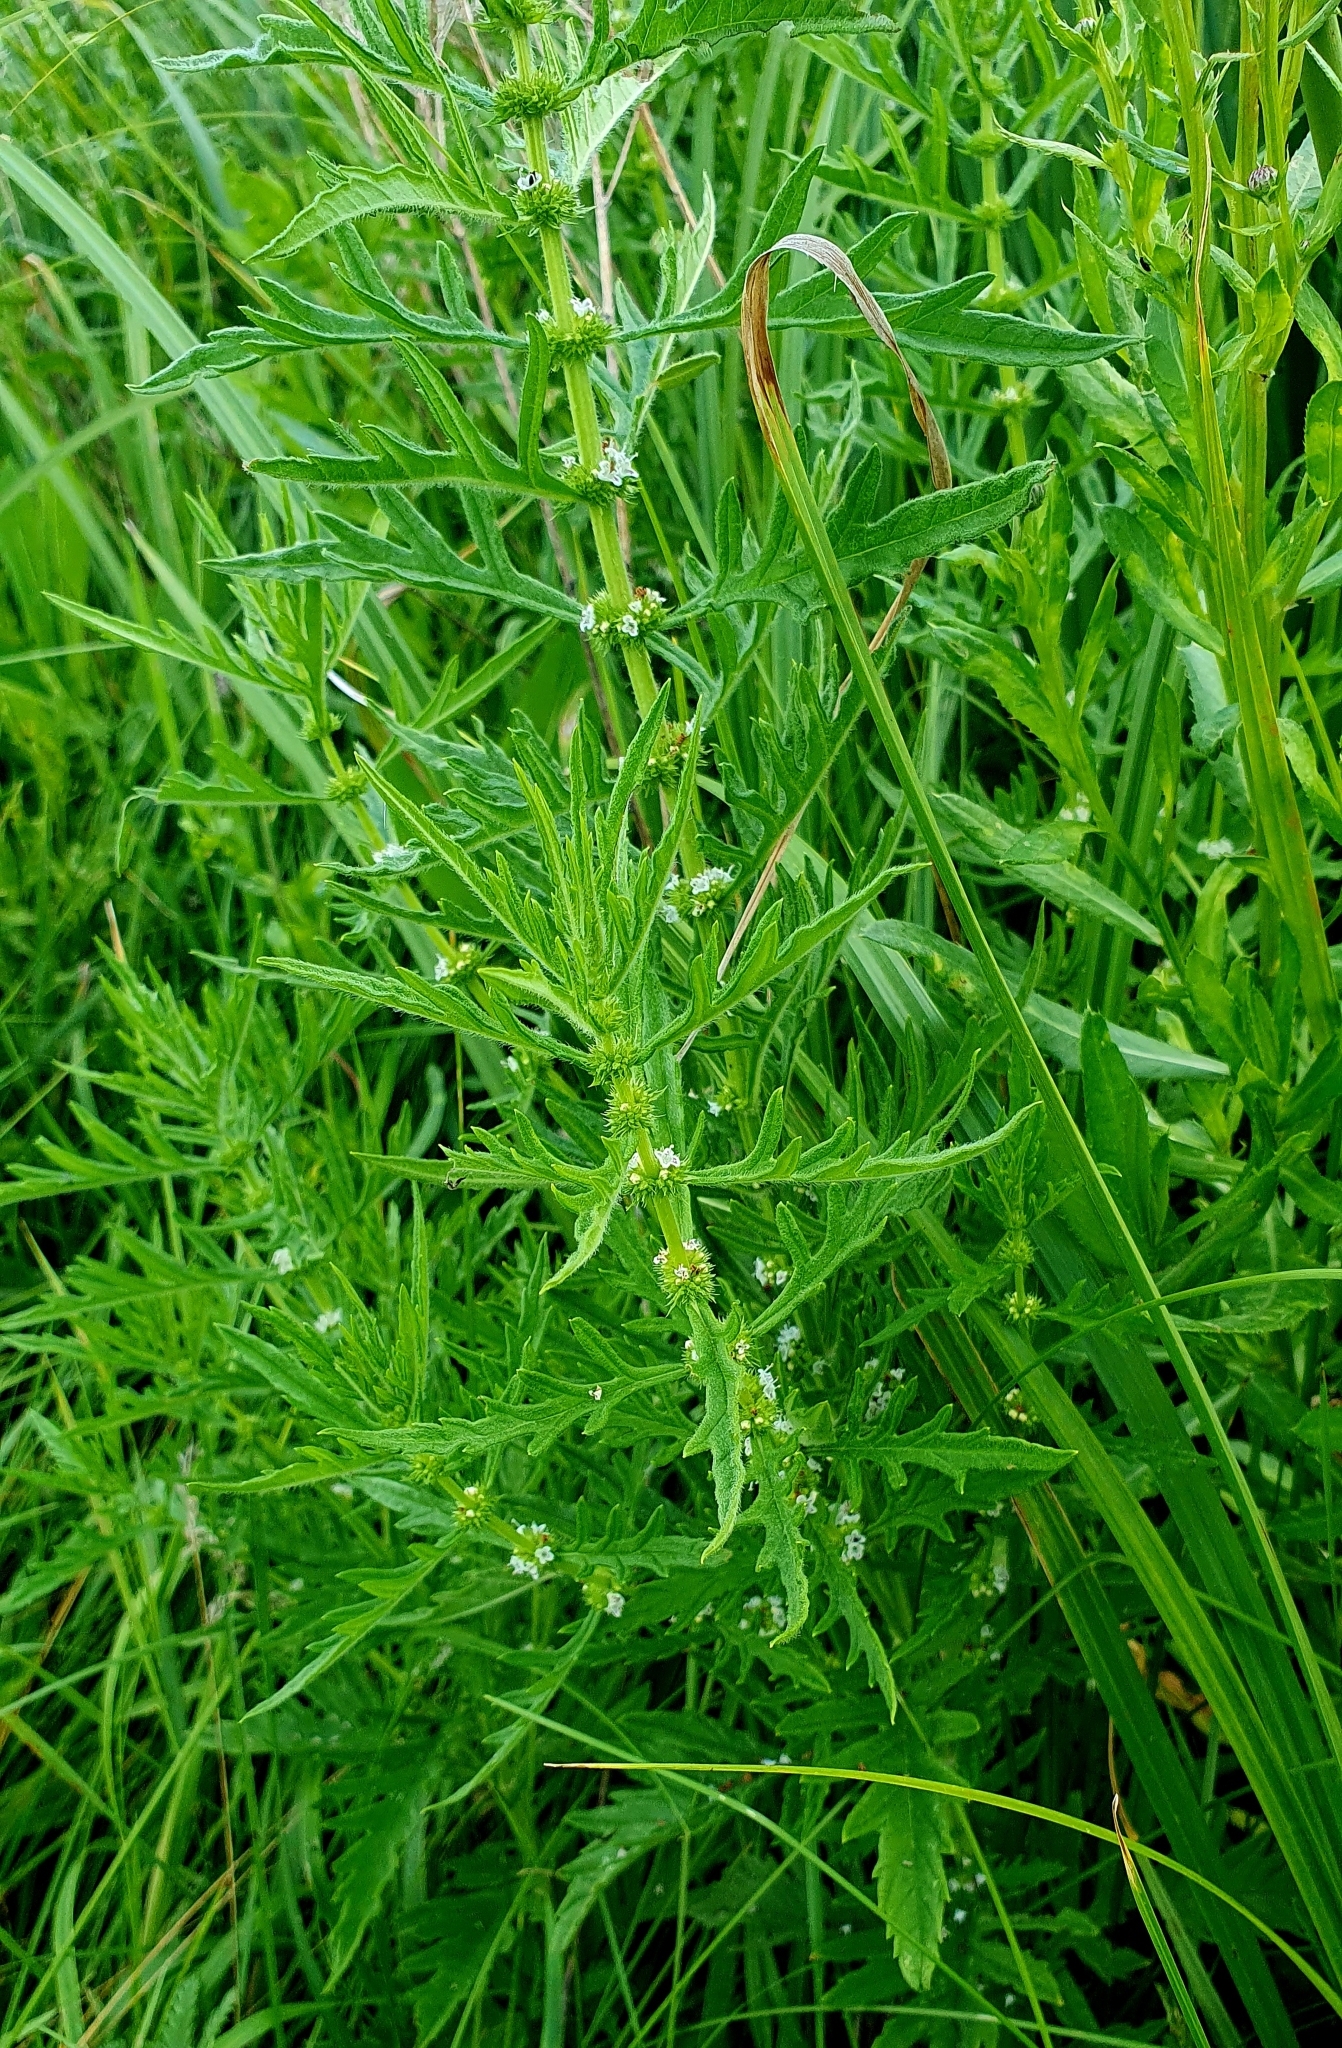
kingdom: Plantae
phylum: Tracheophyta
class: Magnoliopsida
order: Lamiales
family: Lamiaceae
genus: Lycopus
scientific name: Lycopus exaltatus
